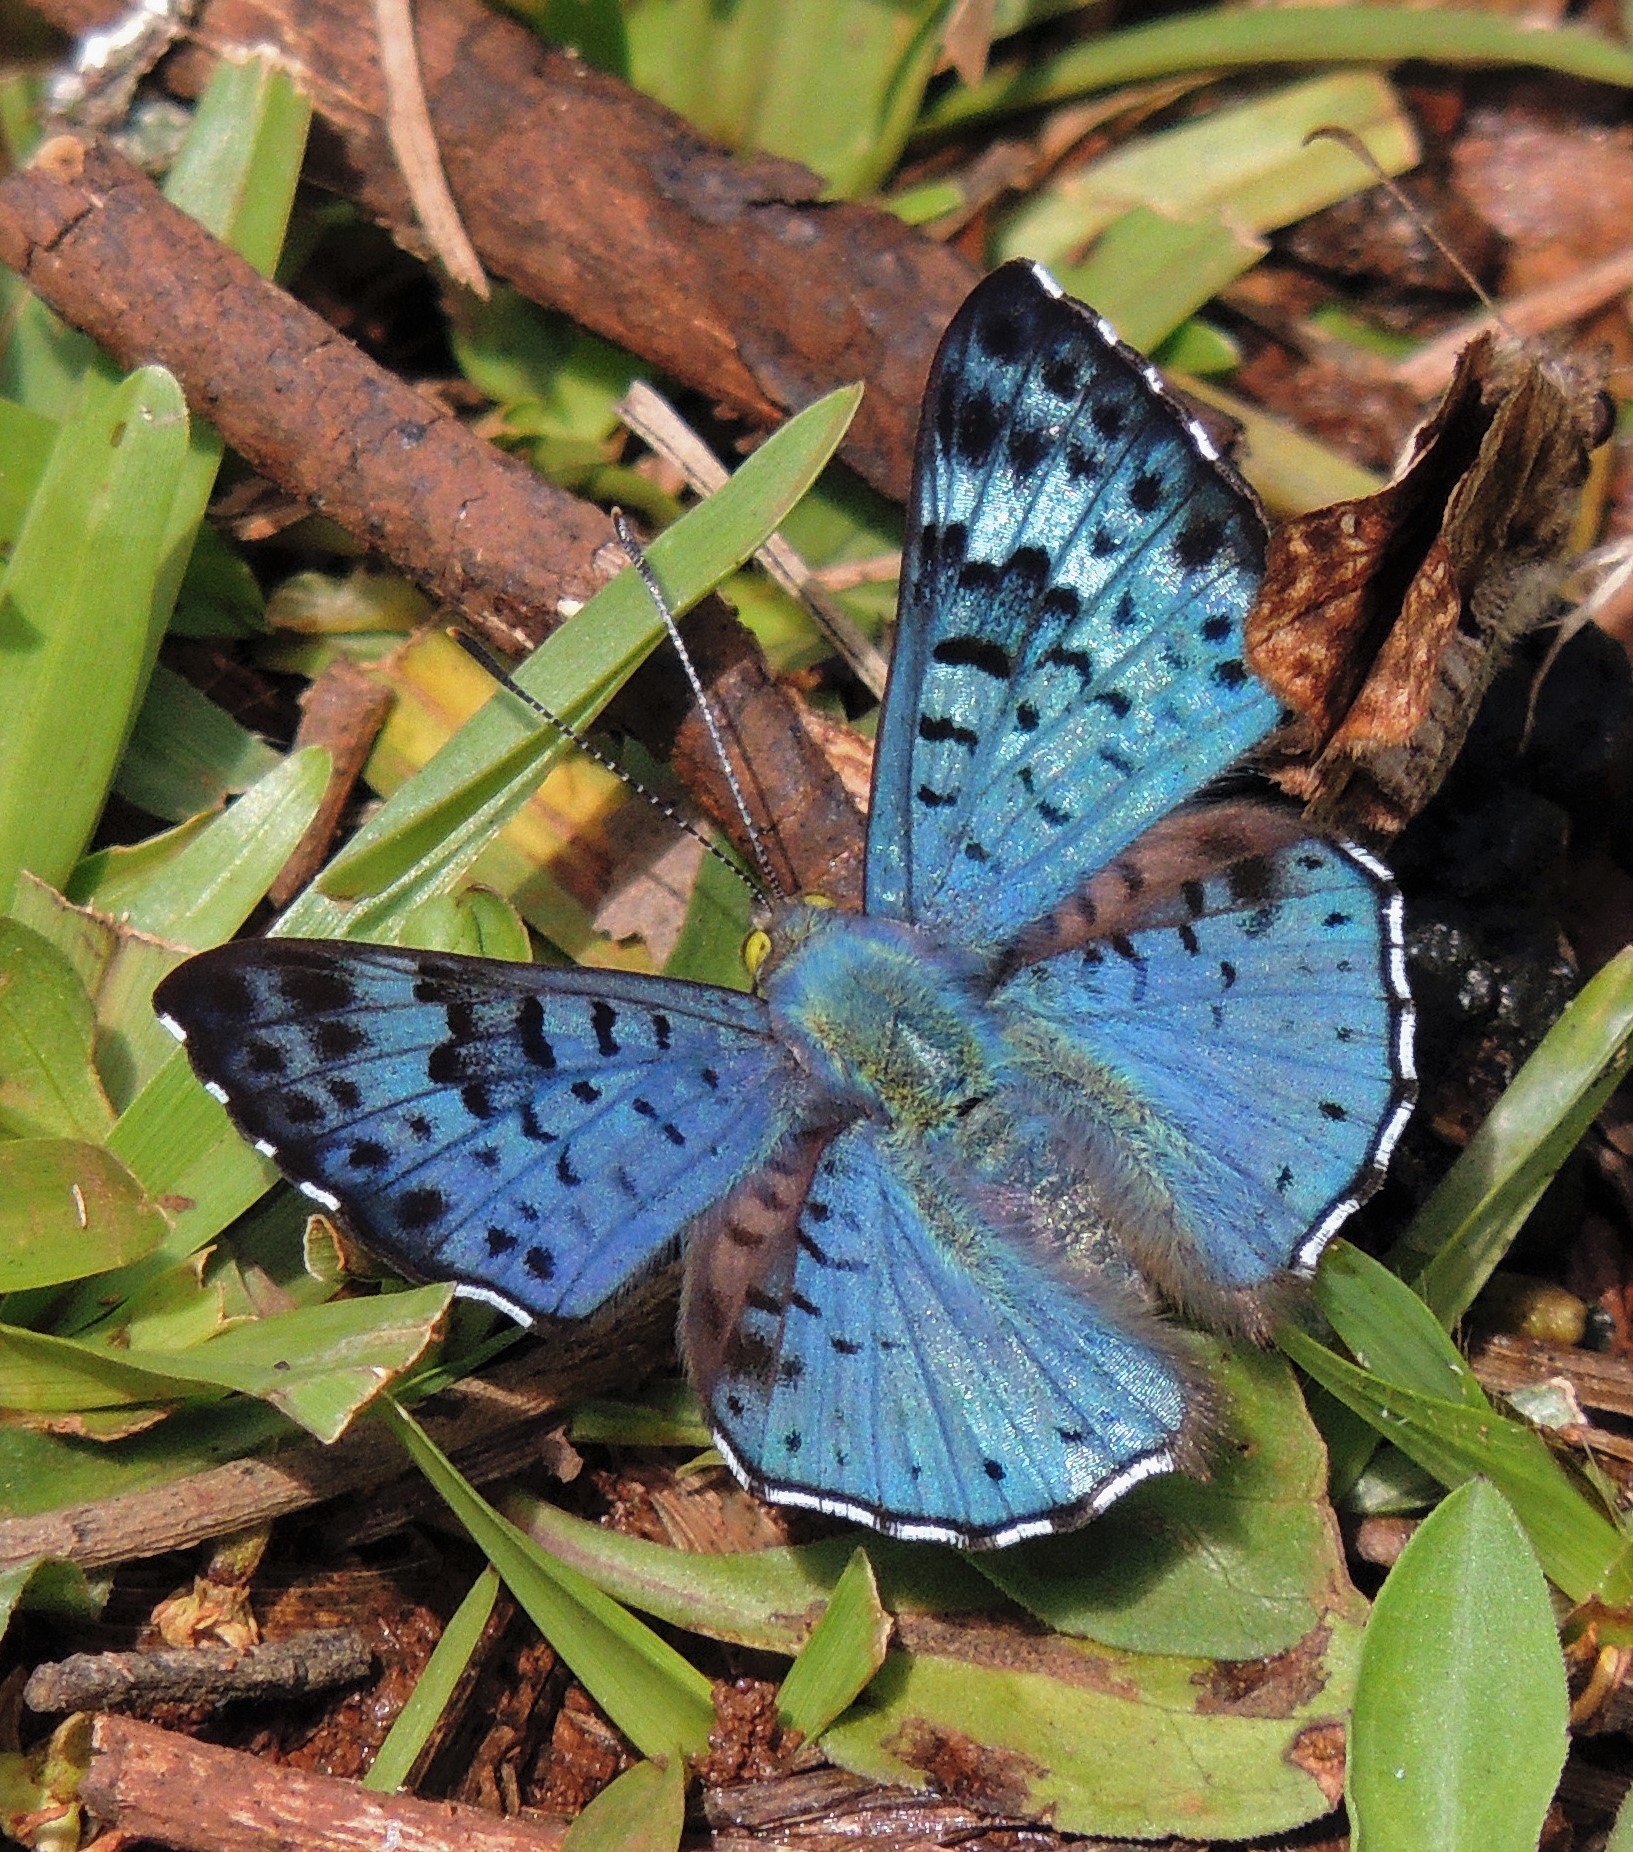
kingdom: Animalia
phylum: Arthropoda
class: Insecta
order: Lepidoptera
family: Riodinidae
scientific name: Riodinidae
